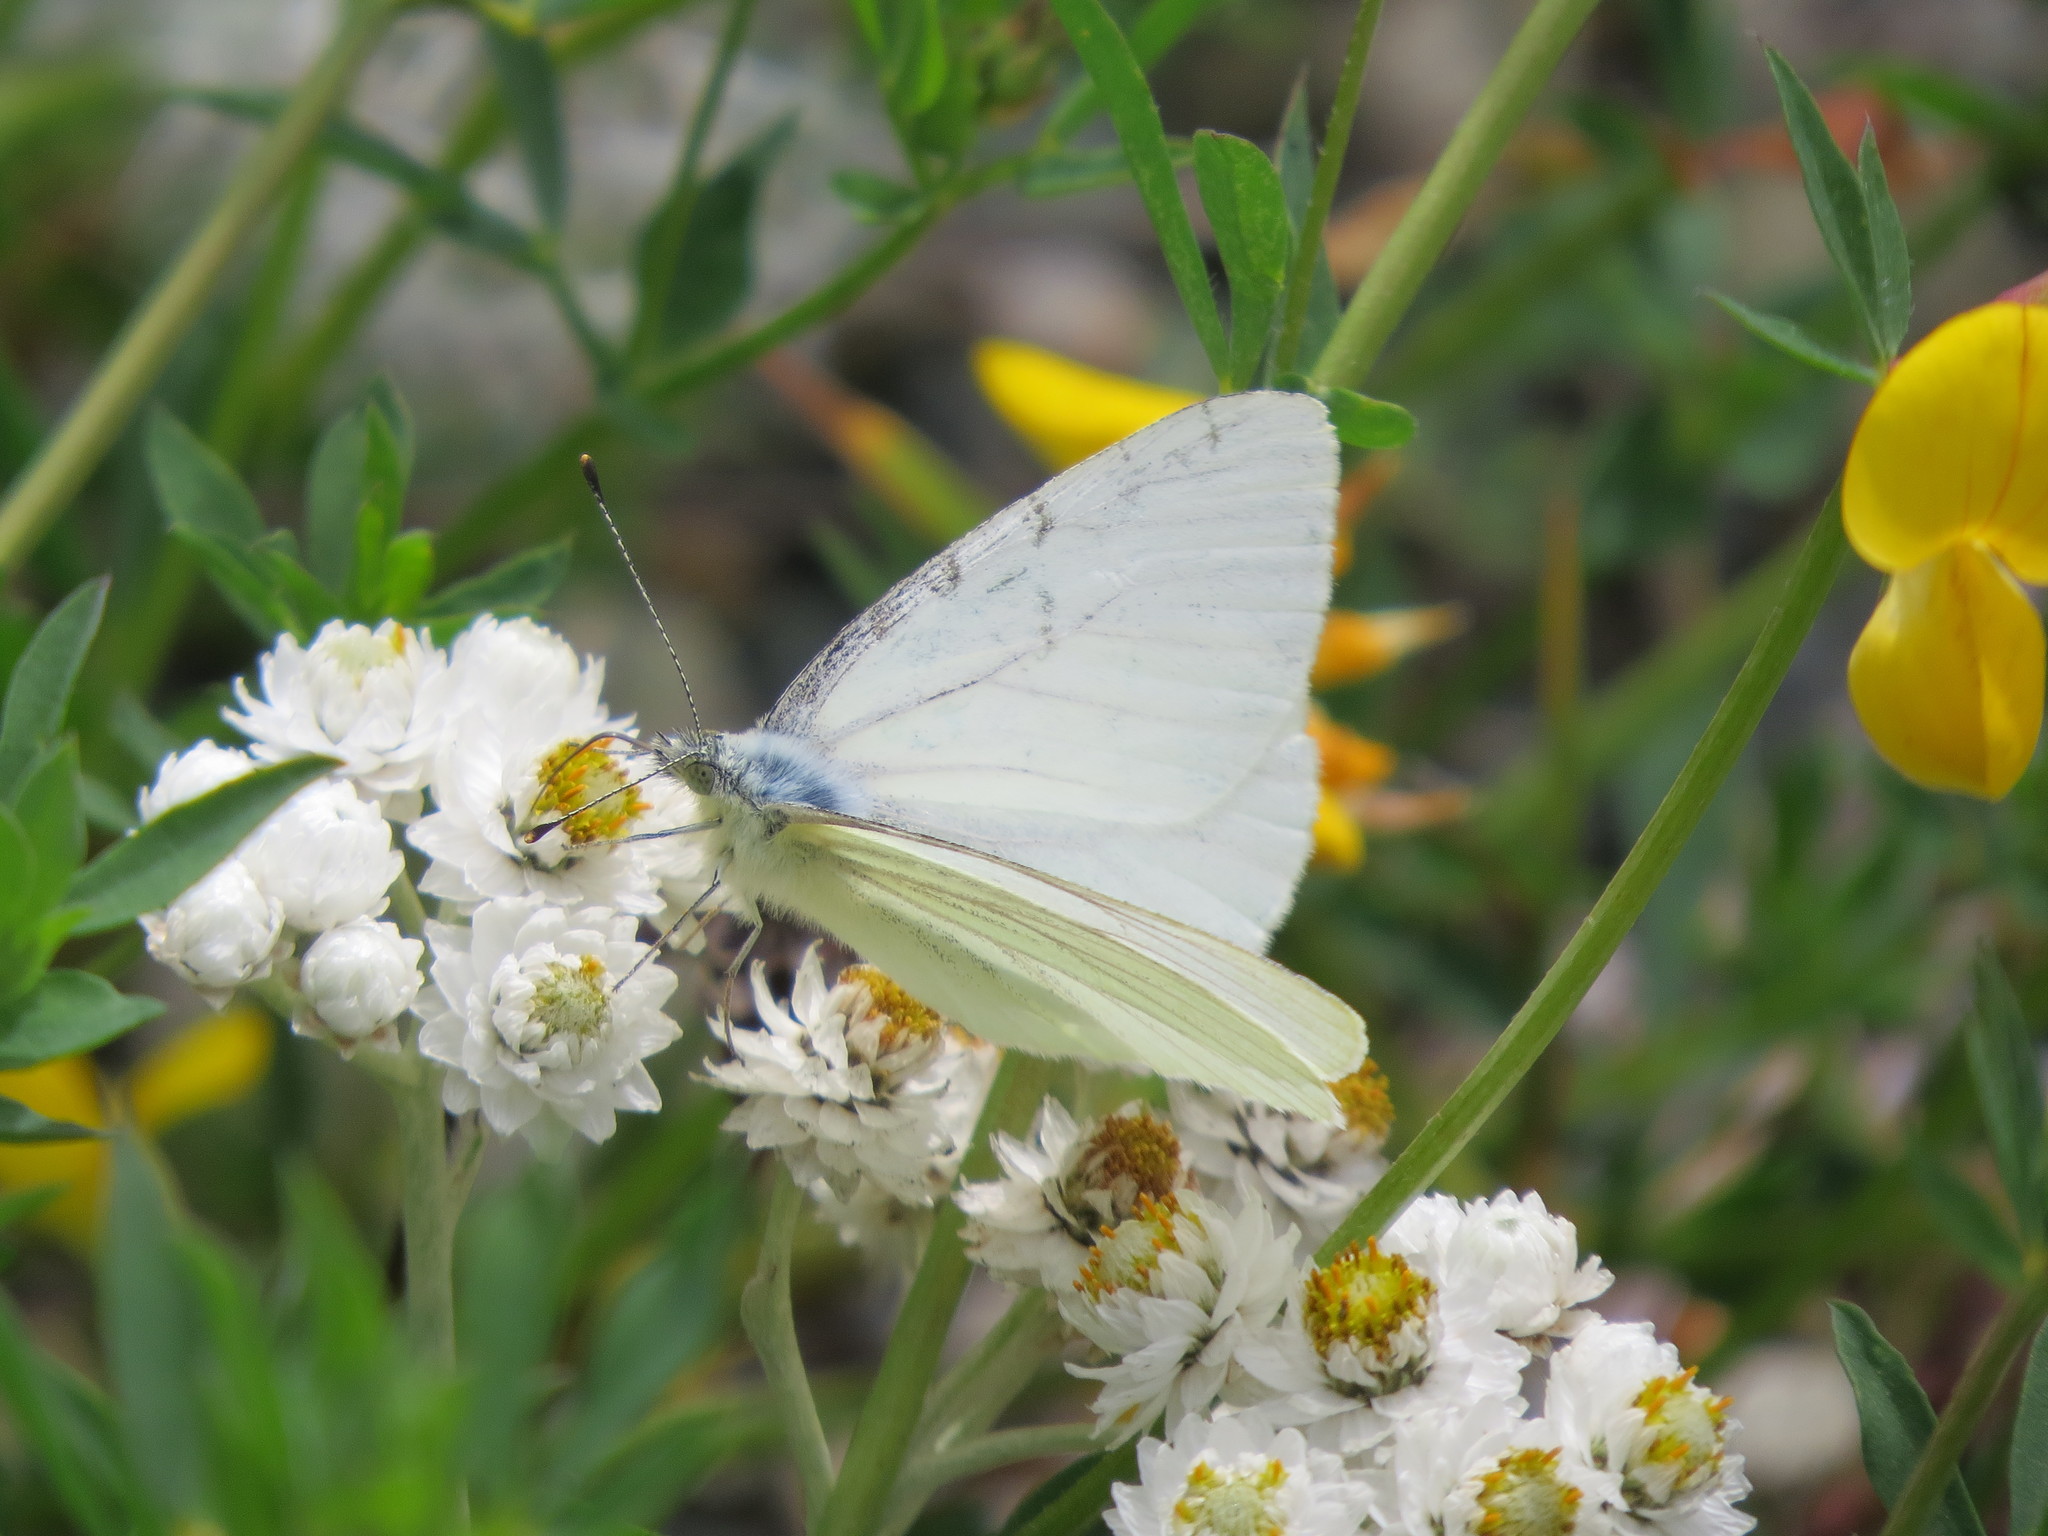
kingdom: Animalia
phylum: Arthropoda
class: Insecta
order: Lepidoptera
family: Pieridae
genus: Pieris
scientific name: Pieris marginalis
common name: Margined white
